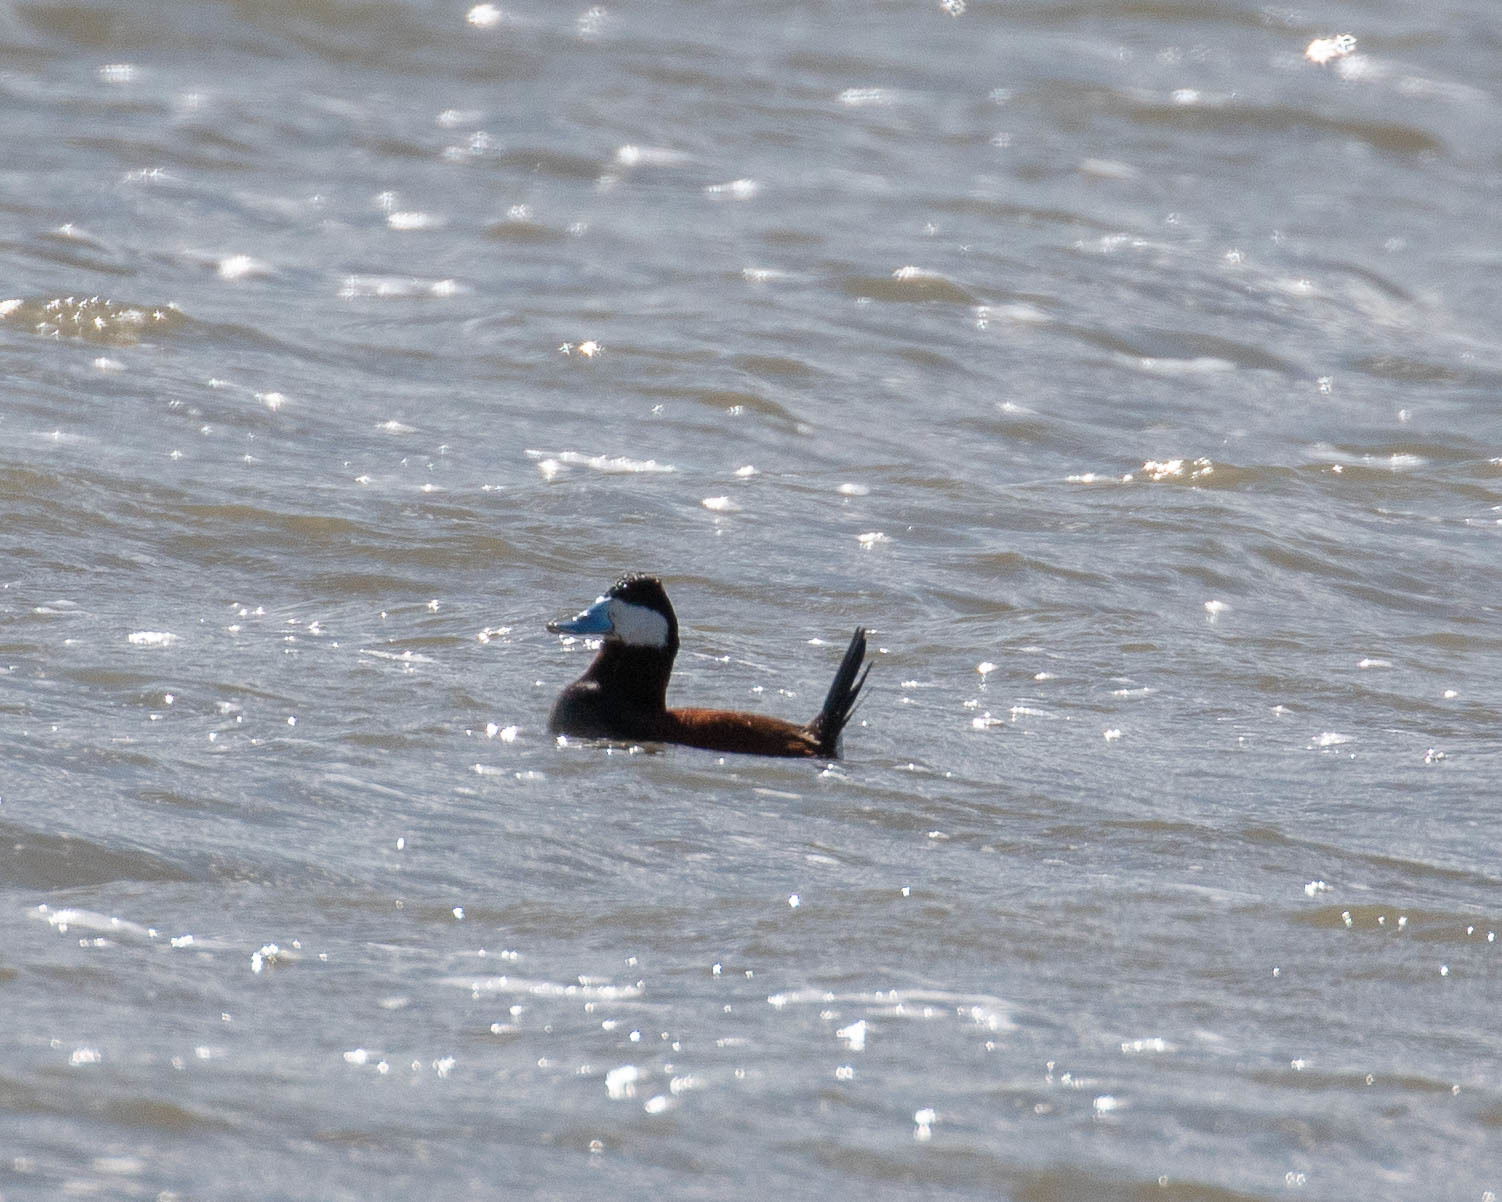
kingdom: Animalia
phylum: Chordata
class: Aves
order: Anseriformes
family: Anatidae
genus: Oxyura
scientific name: Oxyura jamaicensis
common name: Ruddy duck
